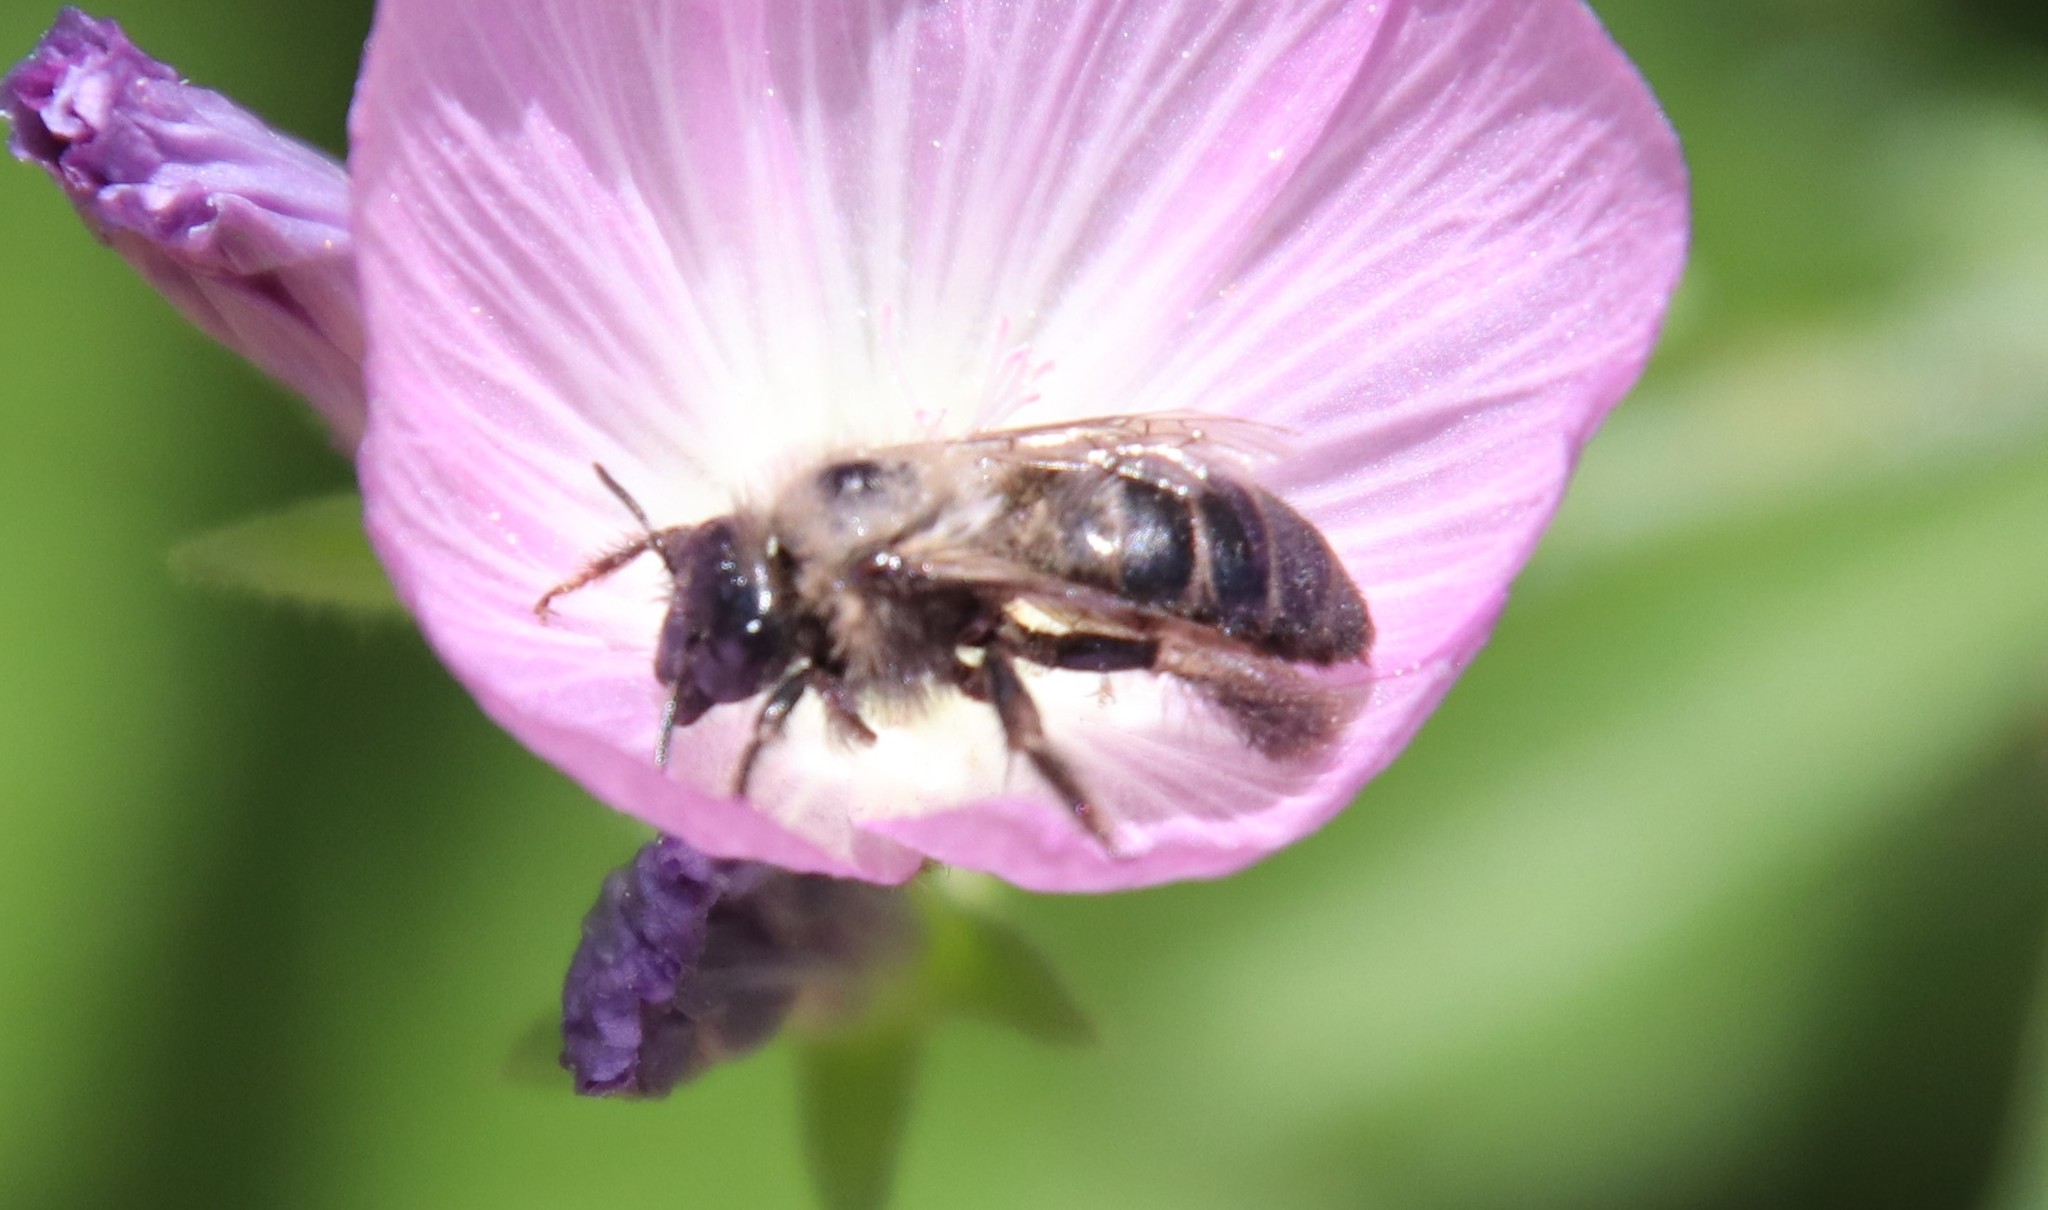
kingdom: Animalia
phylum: Arthropoda
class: Insecta
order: Hymenoptera
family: Apidae
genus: Diadasia
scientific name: Diadasia nigrifrons
